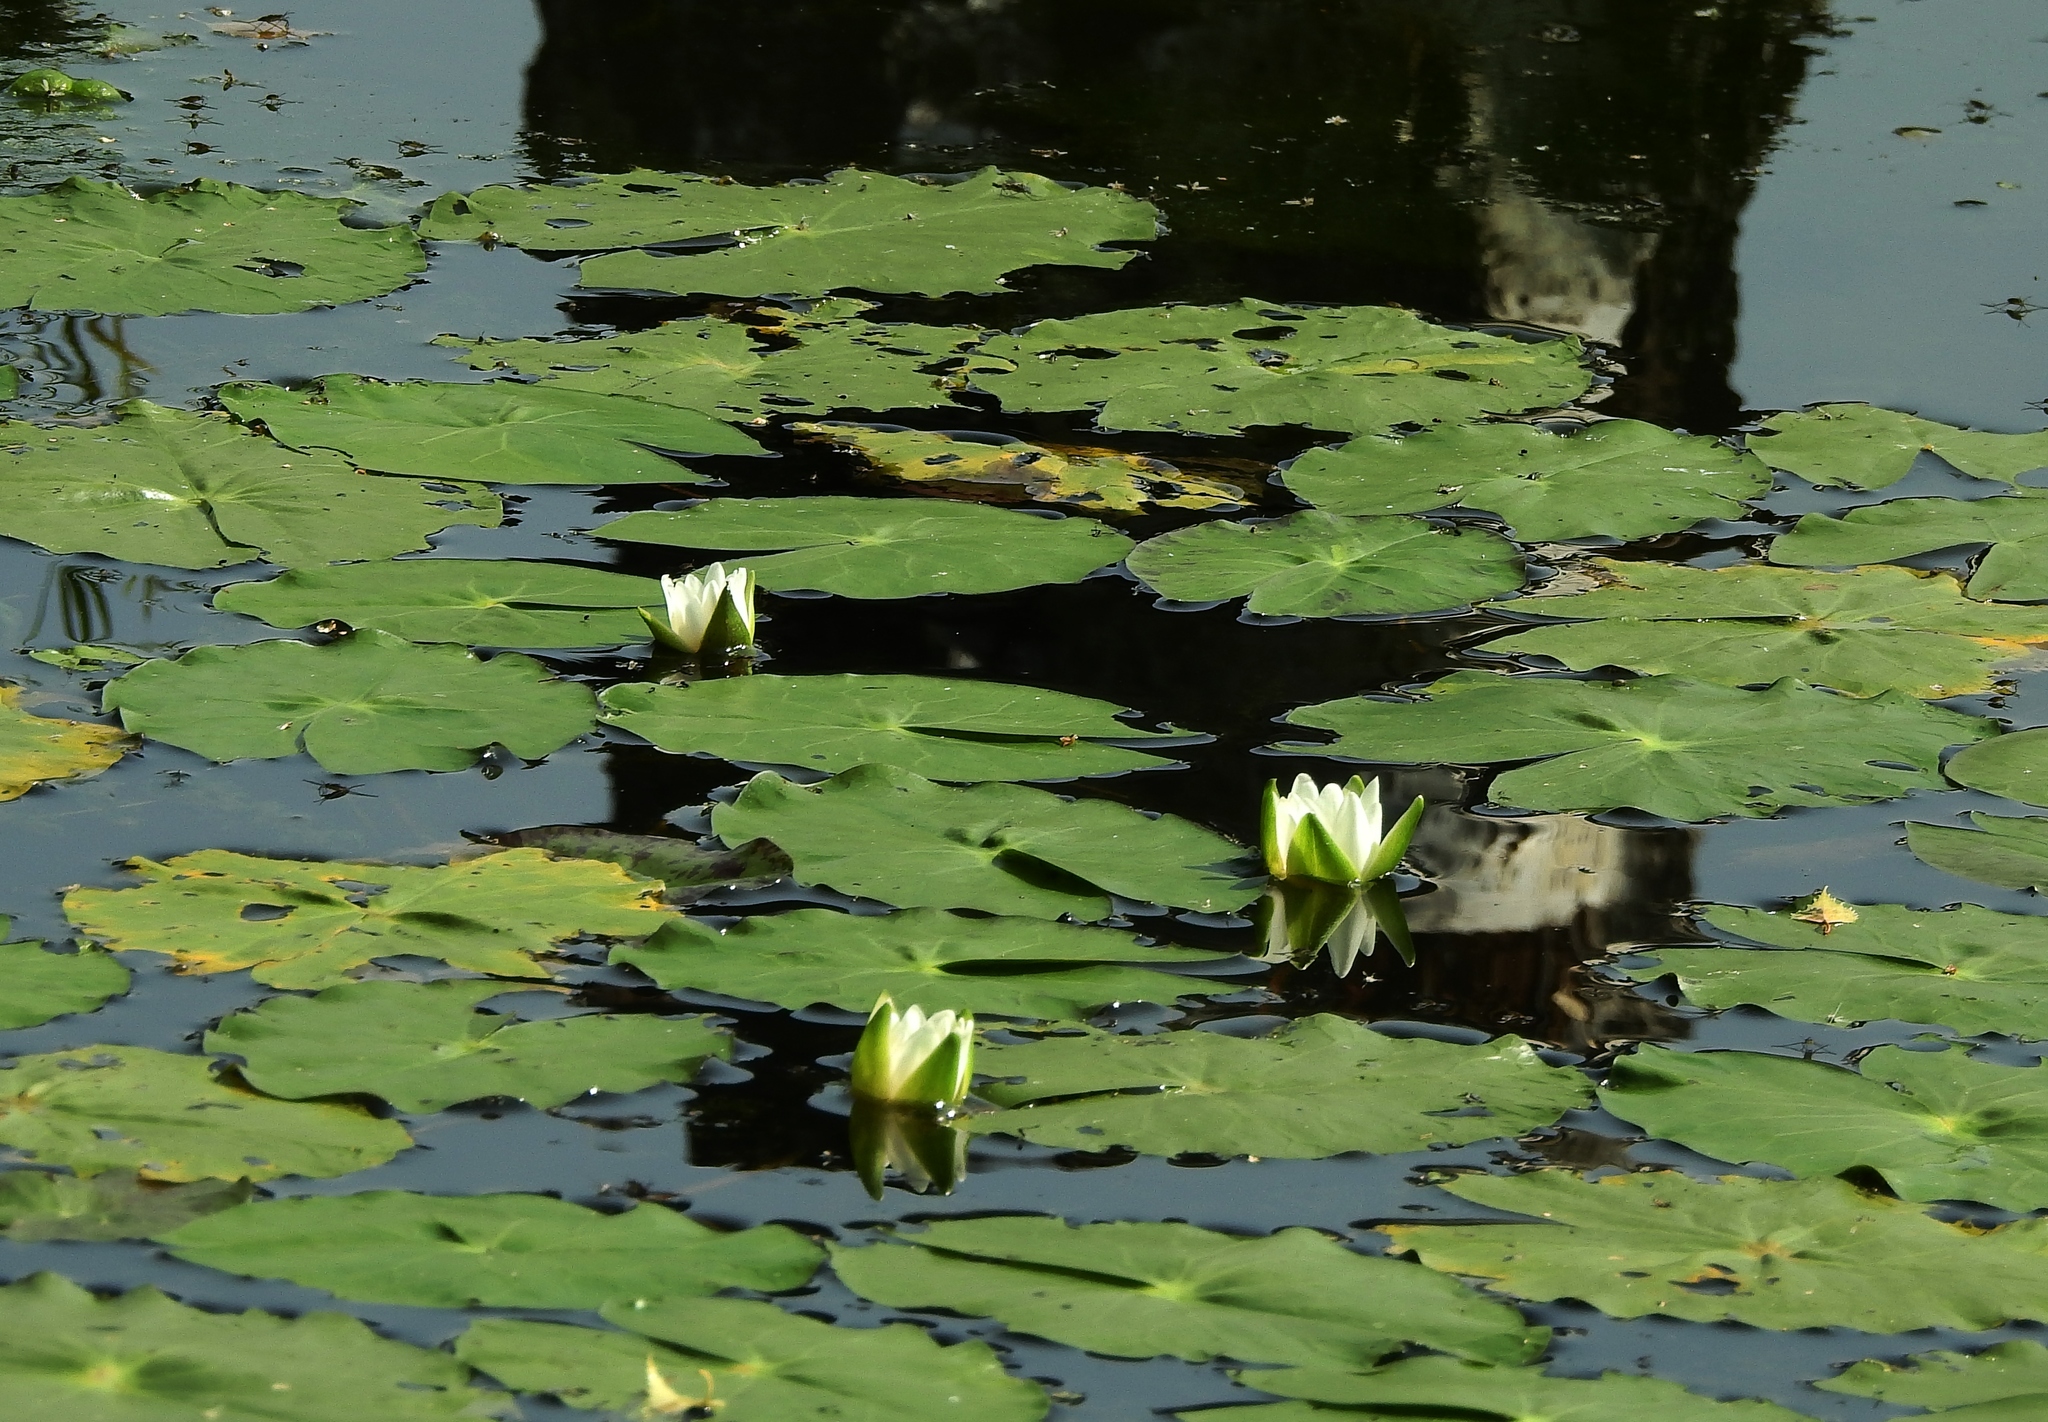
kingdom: Plantae
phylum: Tracheophyta
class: Magnoliopsida
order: Nymphaeales
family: Nymphaeaceae
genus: Nymphaea
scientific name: Nymphaea tetragona
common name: Pygmy water-lily
